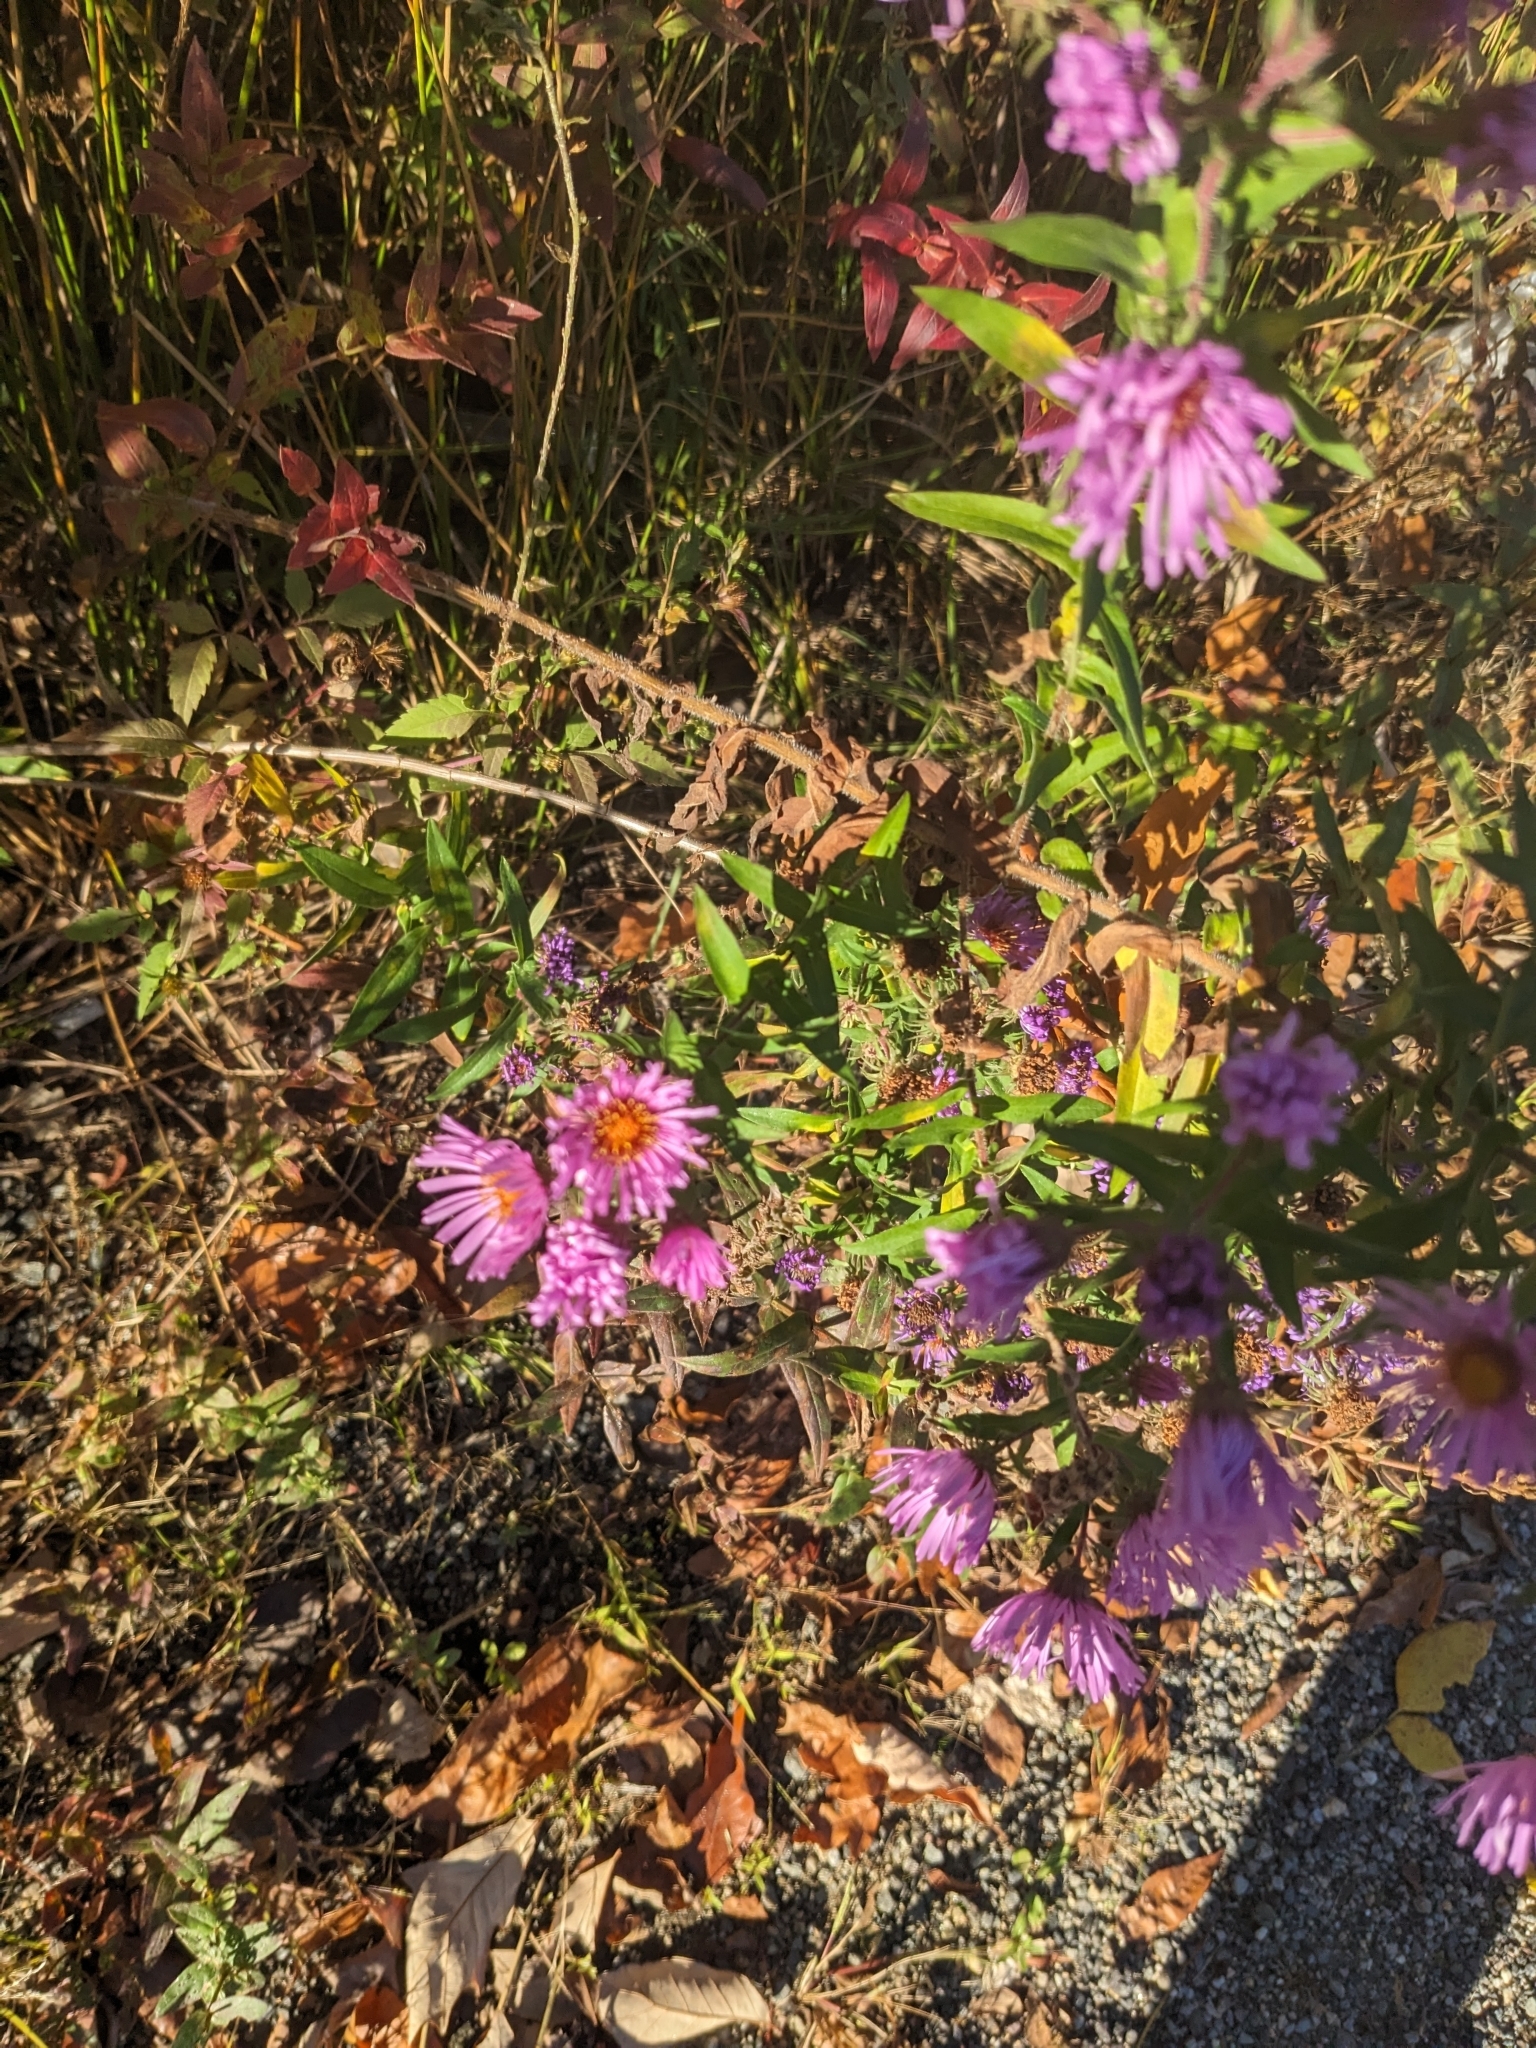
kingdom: Plantae
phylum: Tracheophyta
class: Magnoliopsida
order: Asterales
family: Asteraceae
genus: Symphyotrichum
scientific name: Symphyotrichum novae-angliae
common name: Michaelmas daisy
